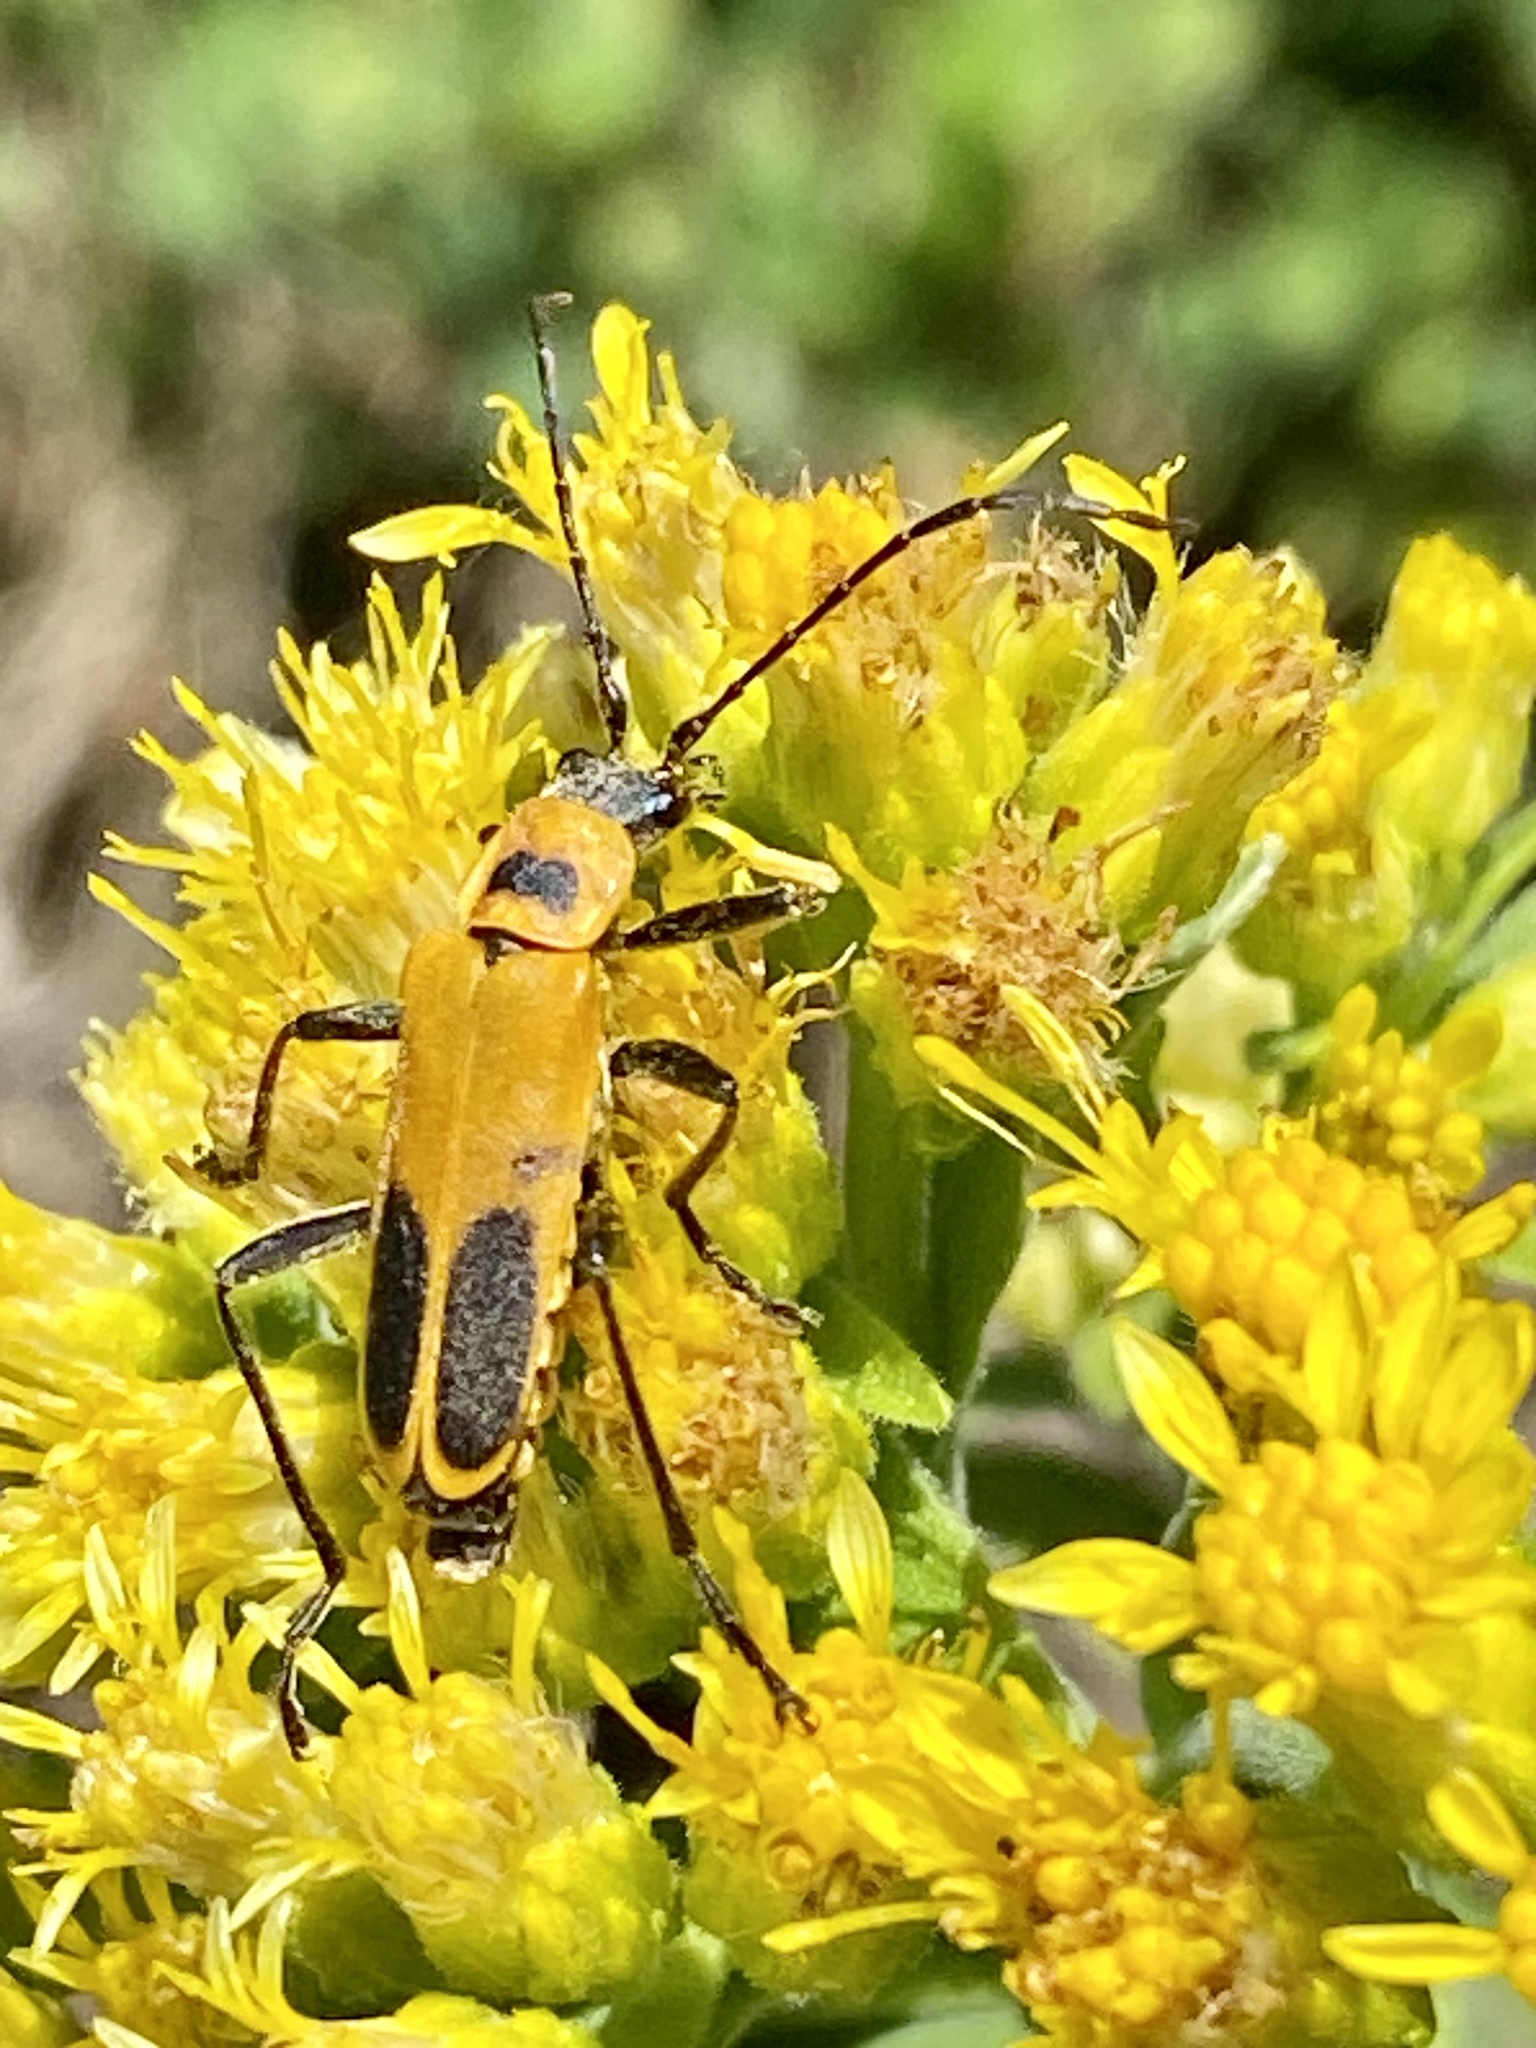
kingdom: Animalia
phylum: Arthropoda
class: Insecta
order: Coleoptera
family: Cantharidae
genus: Chauliognathus
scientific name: Chauliognathus pensylvanicus
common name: Goldenrod soldier beetle
